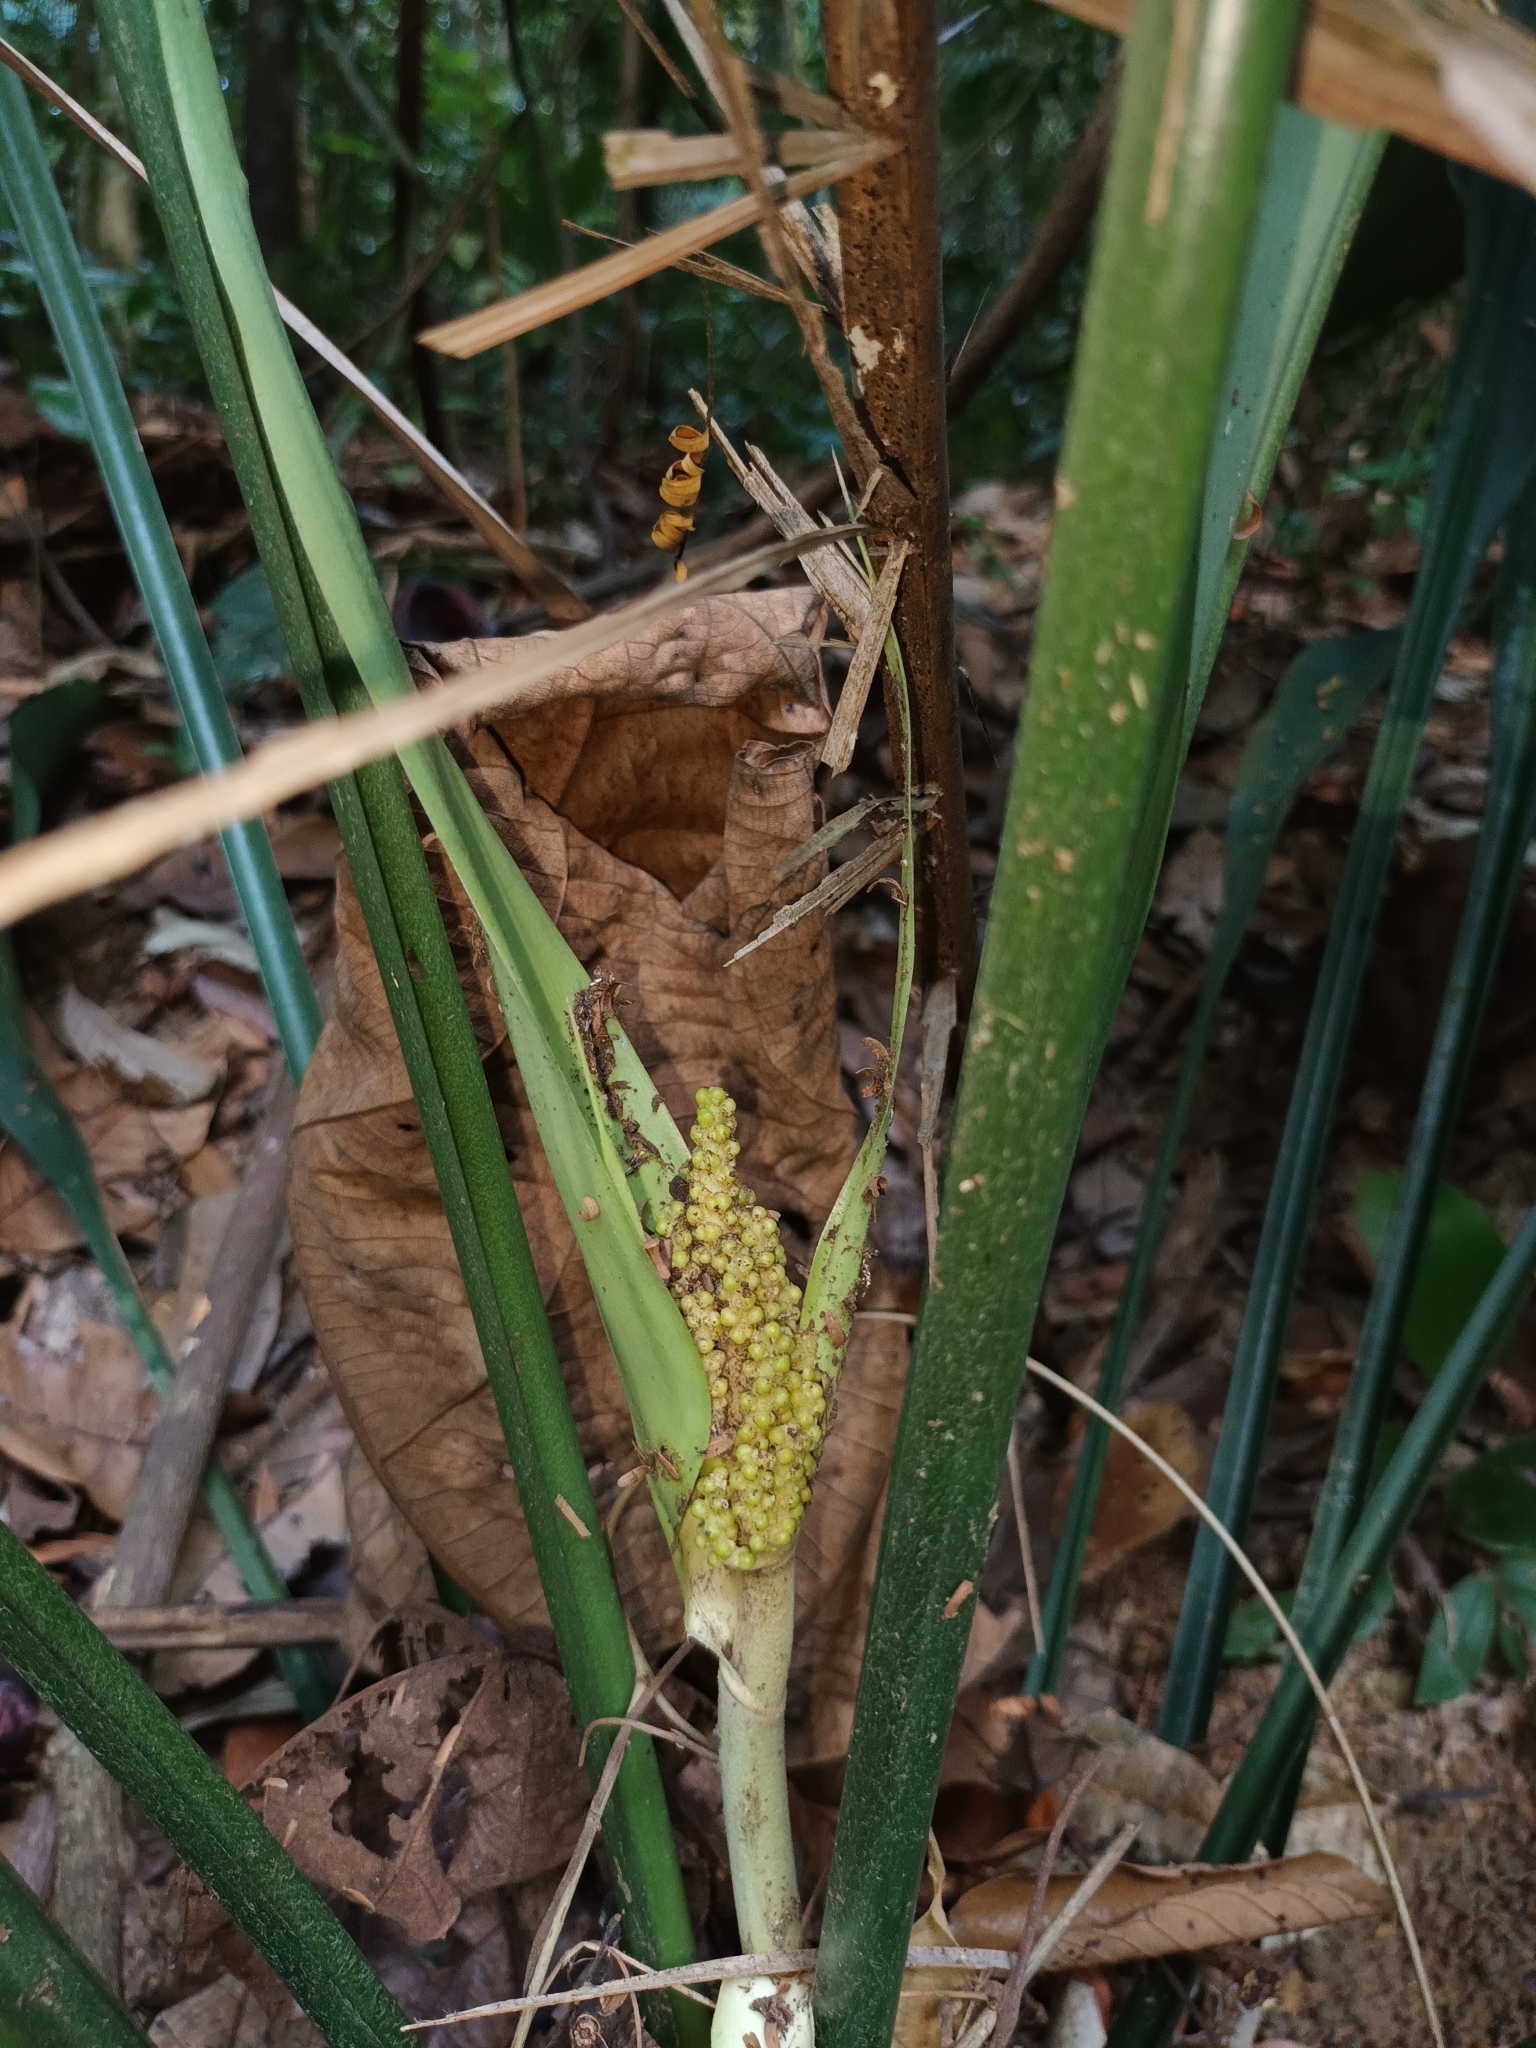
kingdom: Plantae
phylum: Tracheophyta
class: Liliopsida
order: Commelinales
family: Hanguanaceae
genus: Hanguana
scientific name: Hanguana rubinea
